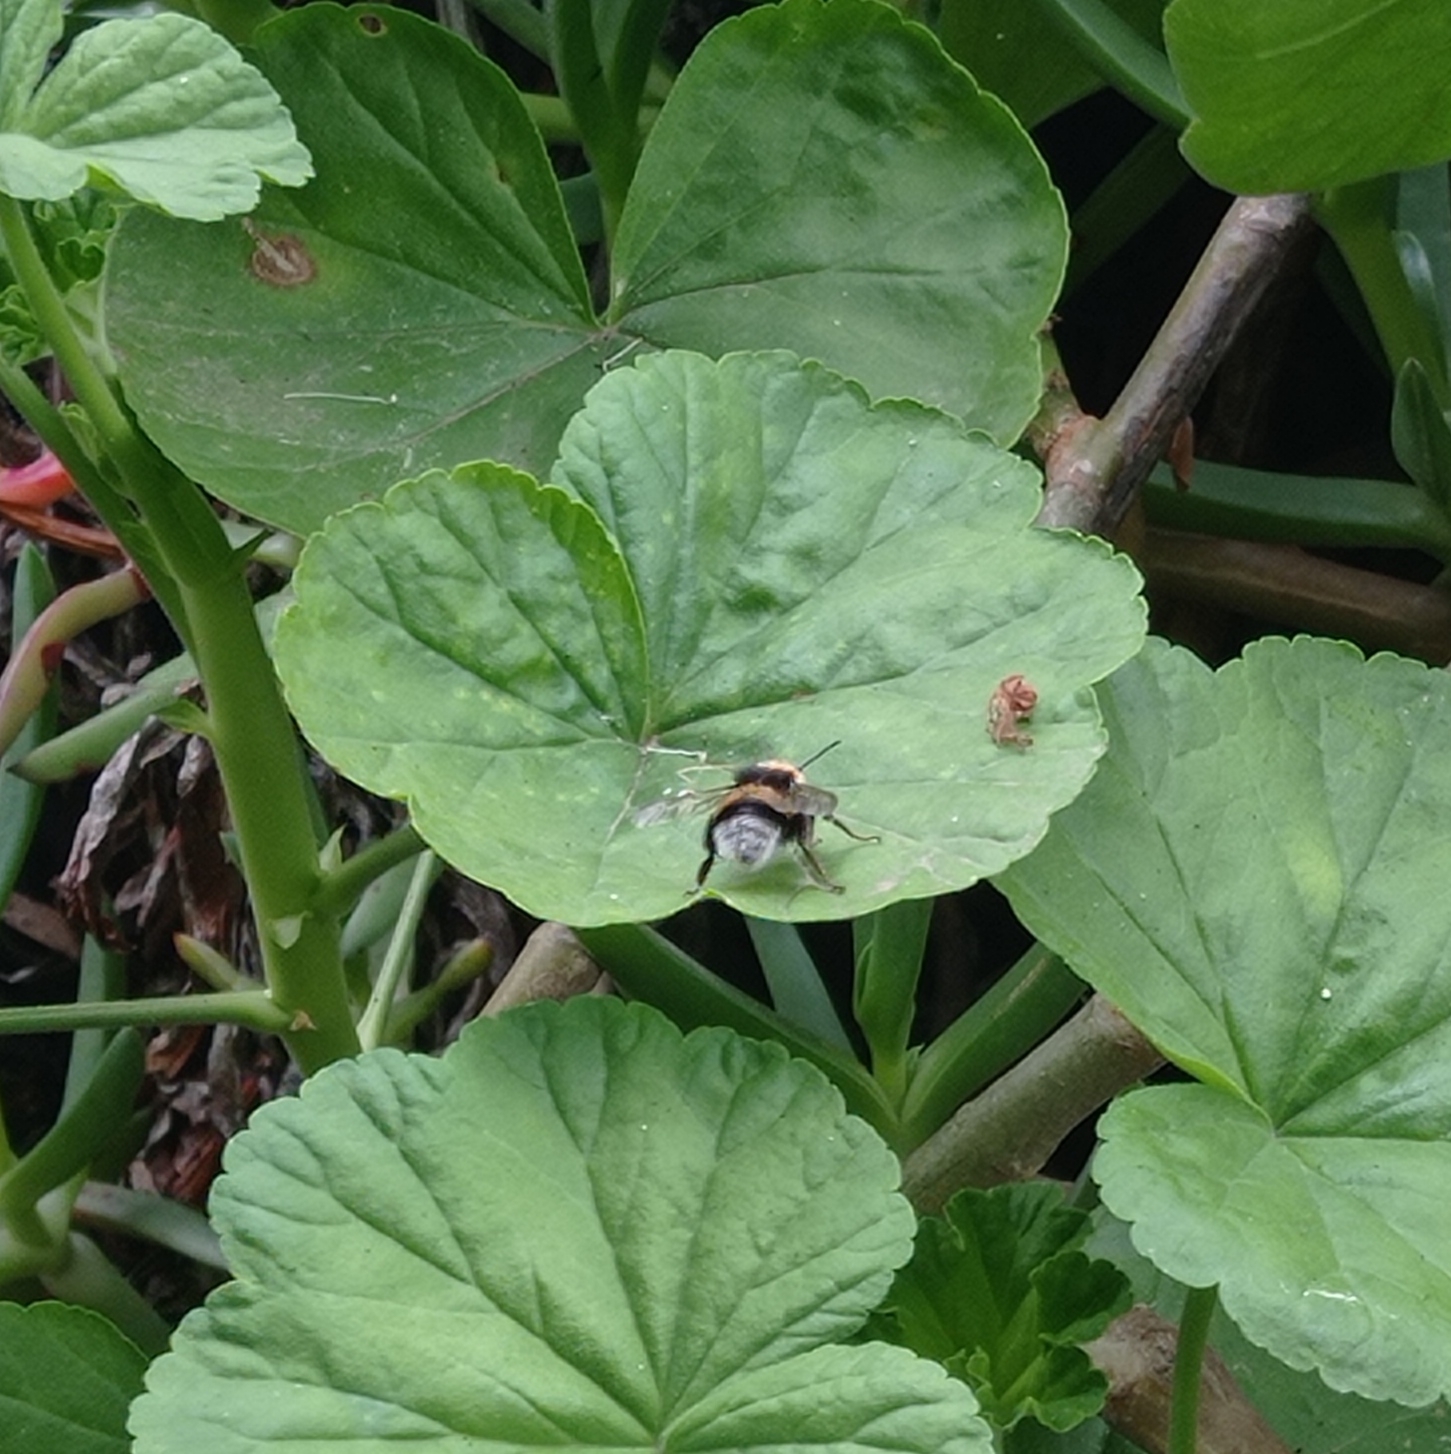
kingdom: Animalia
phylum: Arthropoda
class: Insecta
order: Hymenoptera
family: Apidae
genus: Bombus
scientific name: Bombus terrestris
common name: Buff-tailed bumblebee
